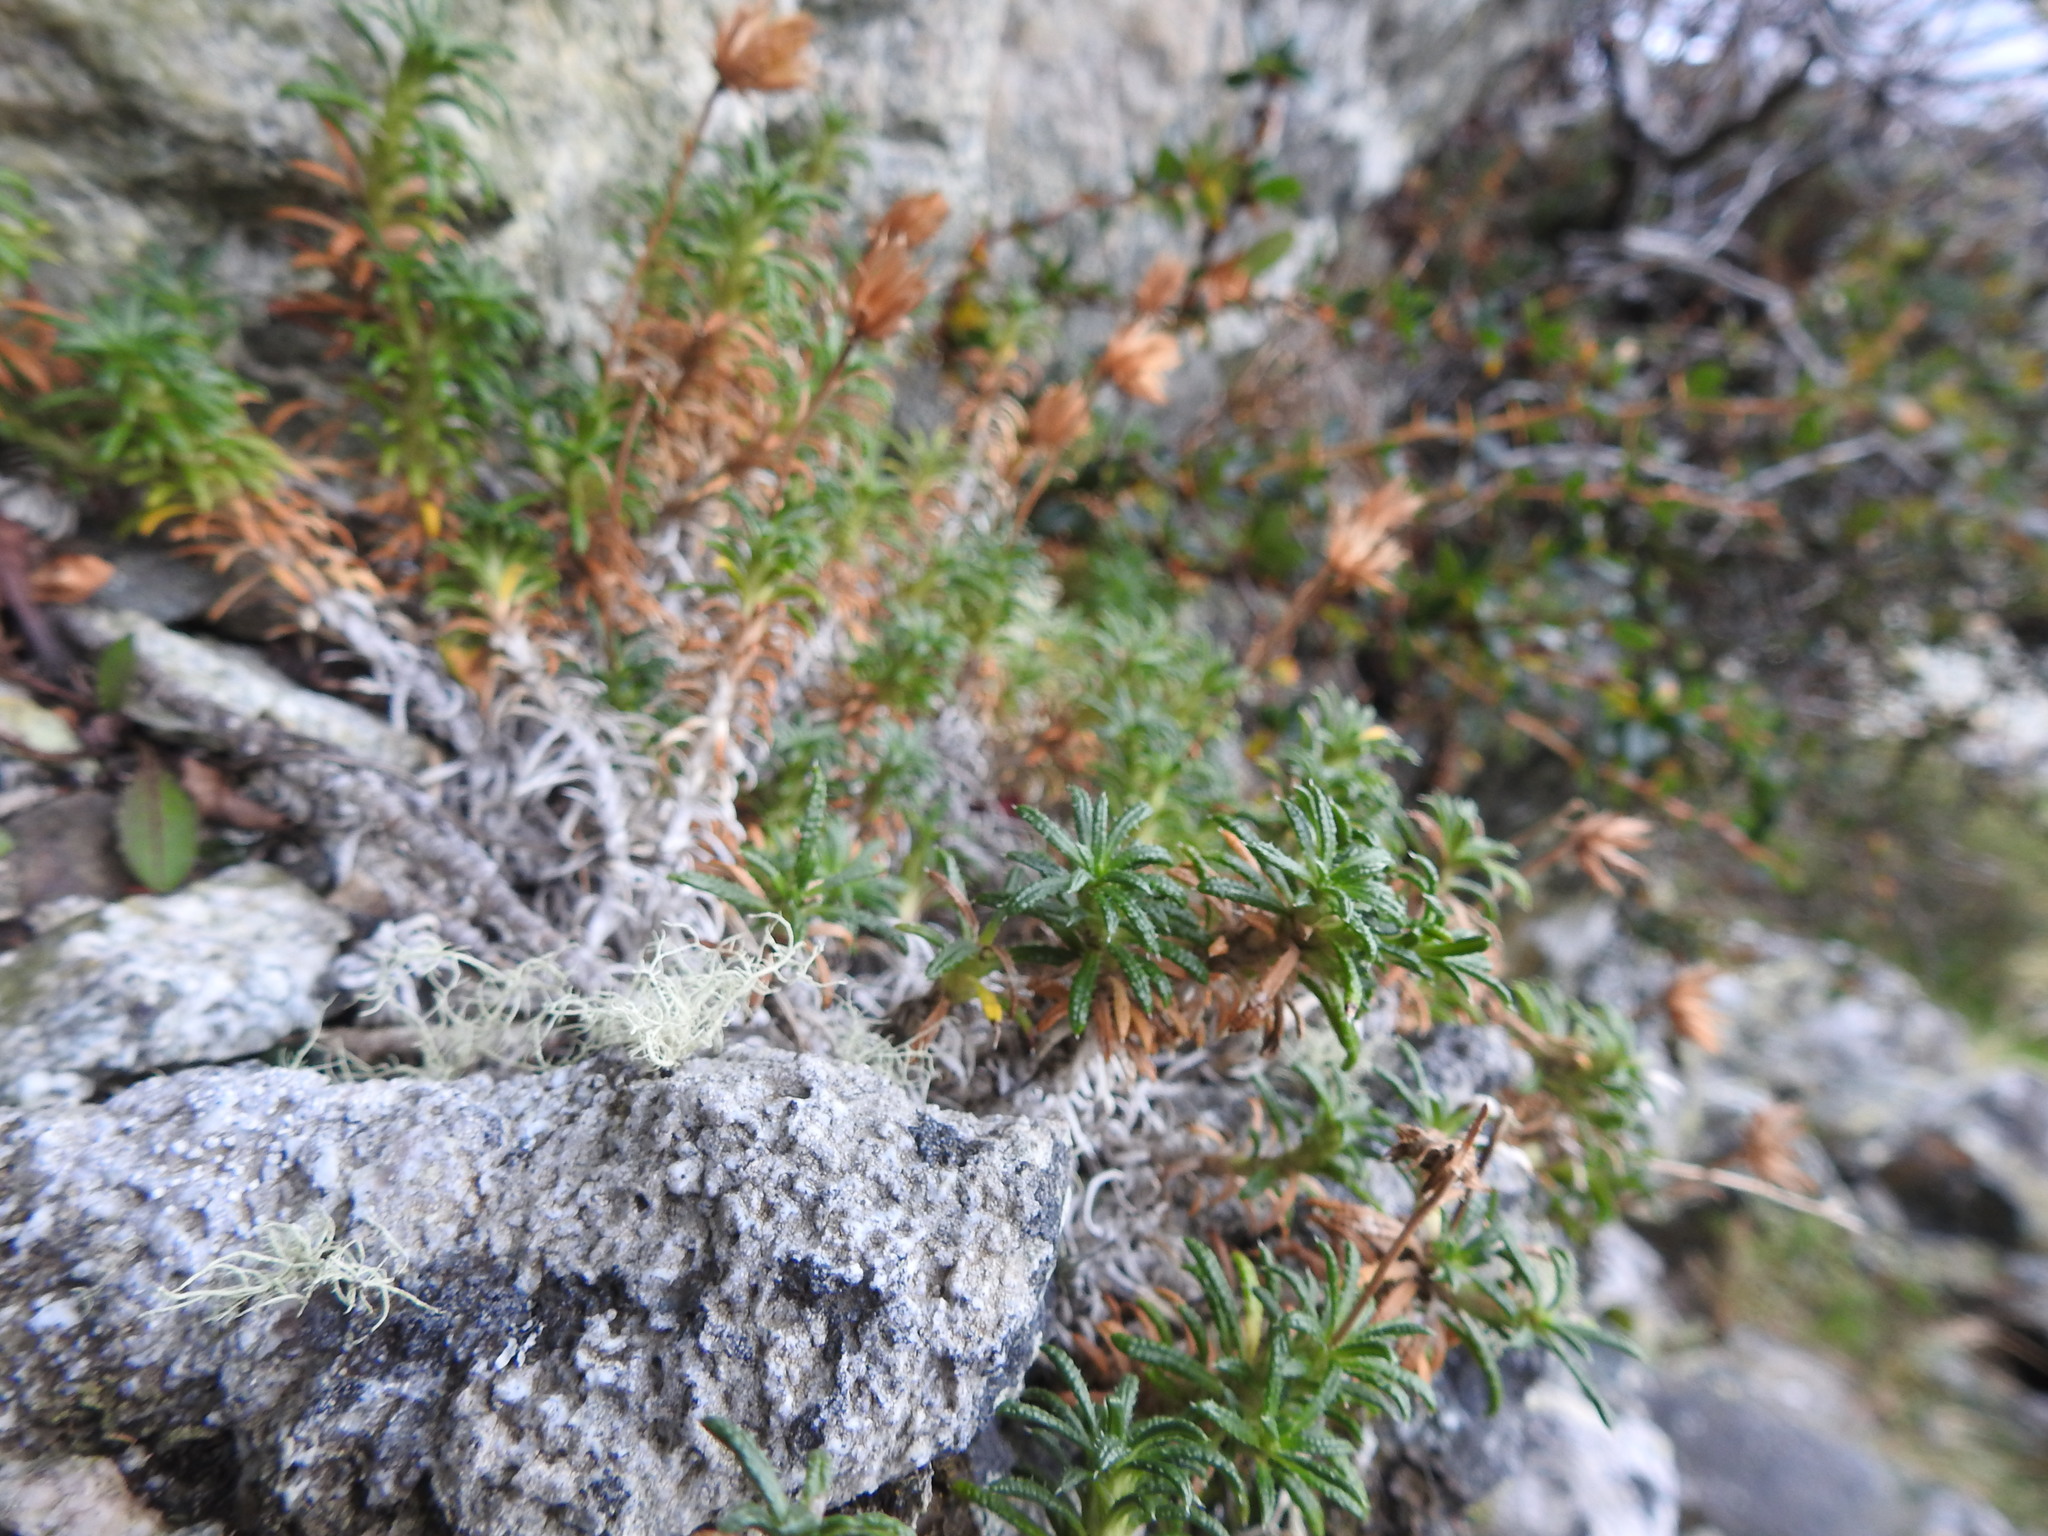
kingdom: Plantae
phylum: Tracheophyta
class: Magnoliopsida
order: Asterales
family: Asteraceae
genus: Perezia
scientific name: Perezia recurvata
